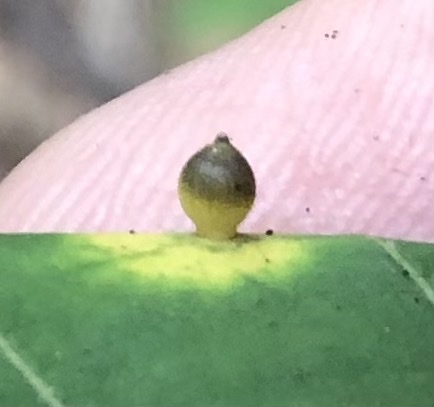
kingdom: Animalia
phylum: Arthropoda
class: Insecta
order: Diptera
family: Cecidomyiidae
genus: Caryomyia
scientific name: Caryomyia viscidolium
